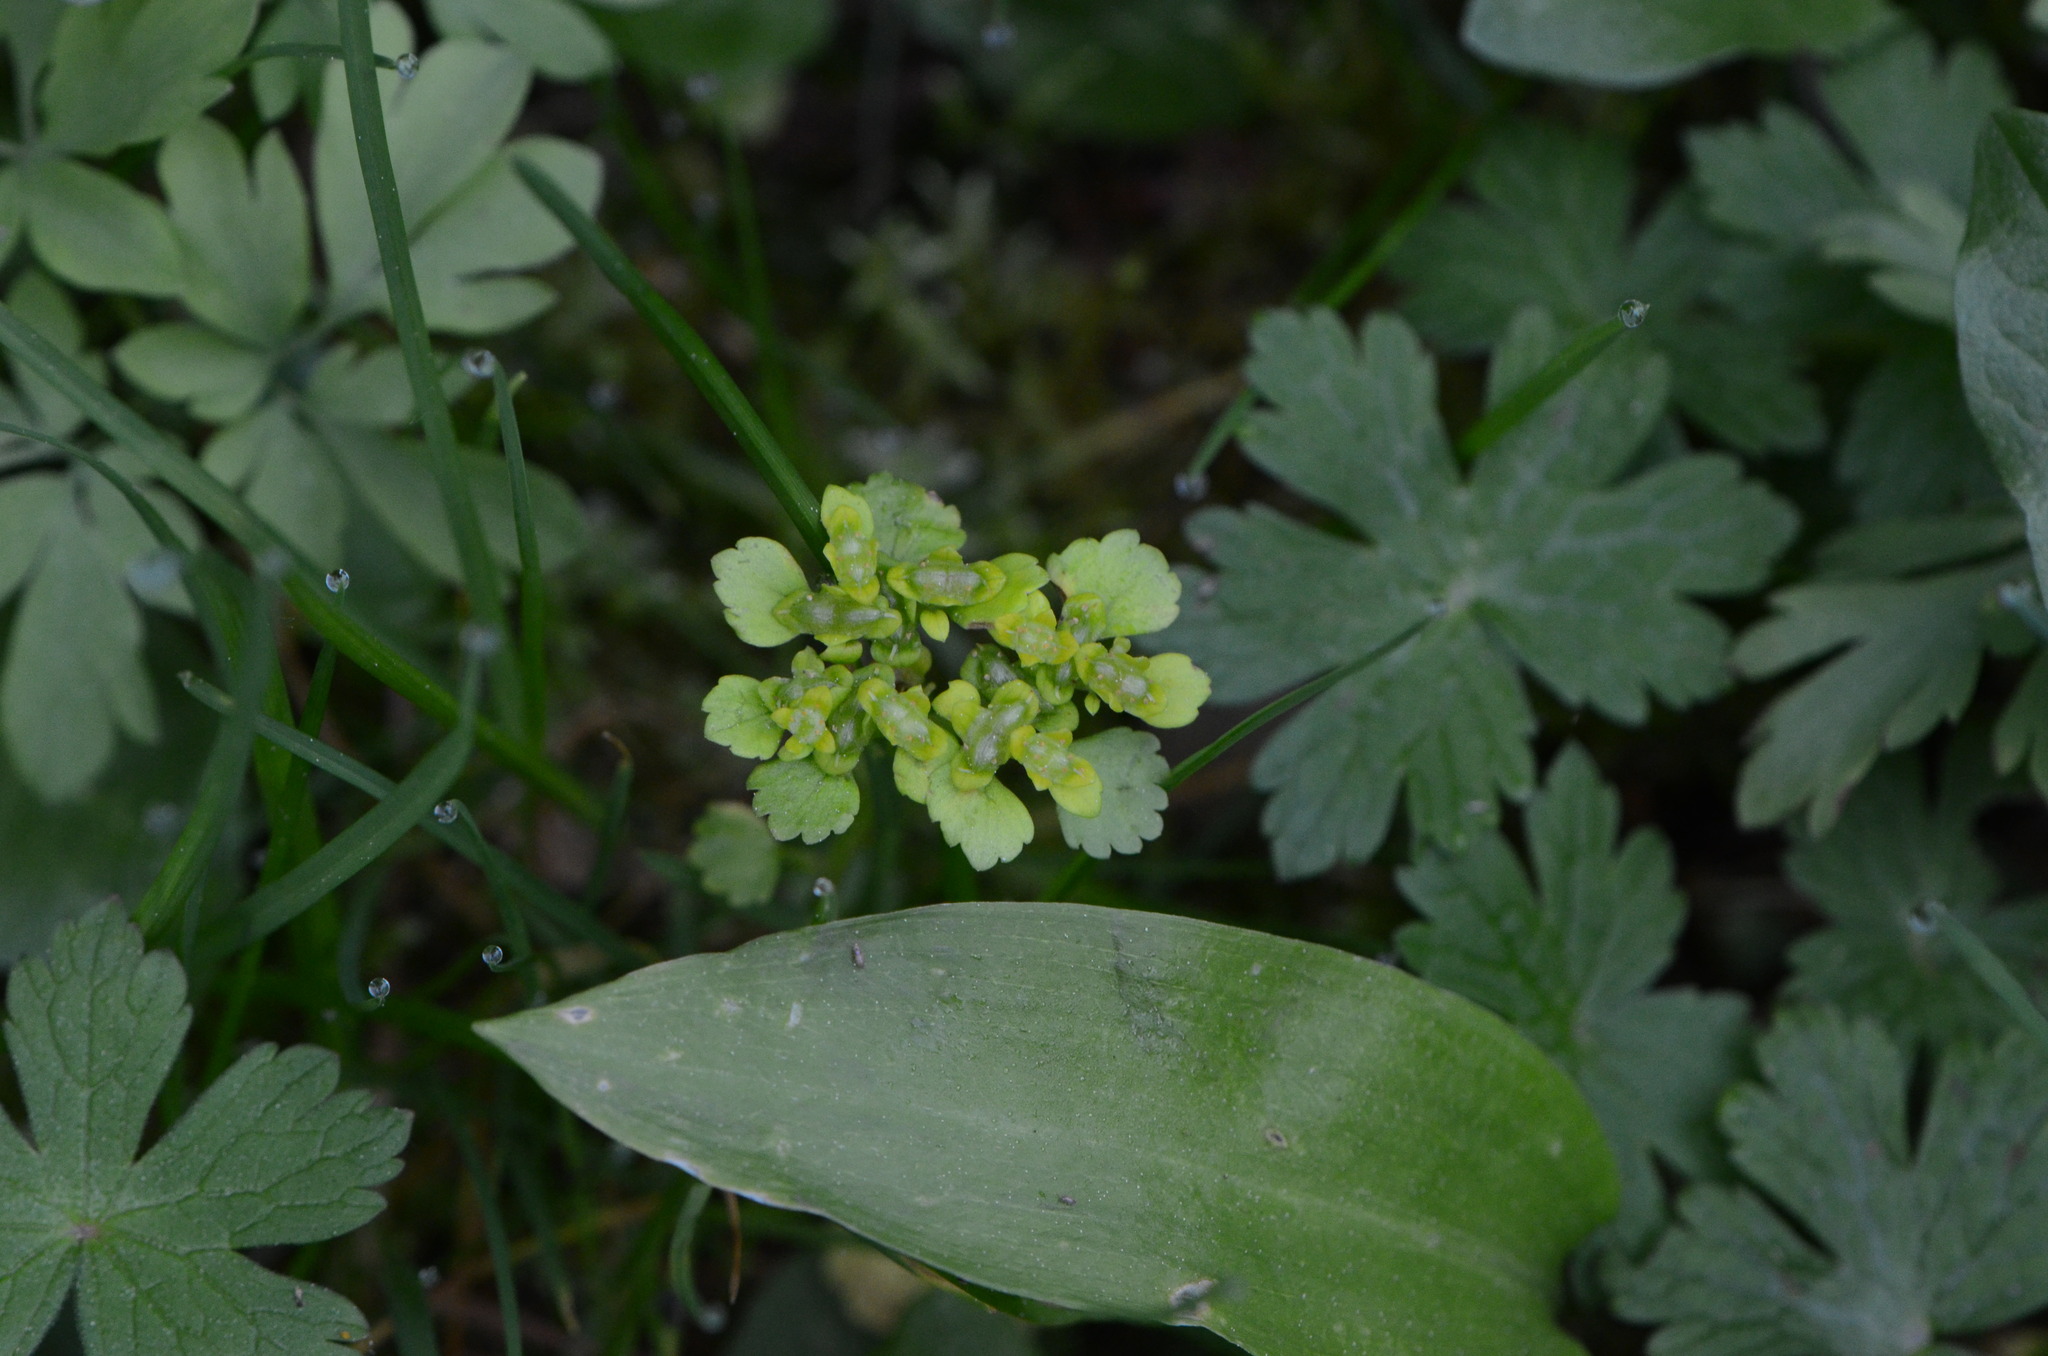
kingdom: Plantae
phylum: Tracheophyta
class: Magnoliopsida
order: Saxifragales
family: Saxifragaceae
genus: Chrysosplenium
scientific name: Chrysosplenium alternifolium
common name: Alternate-leaved golden-saxifrage
